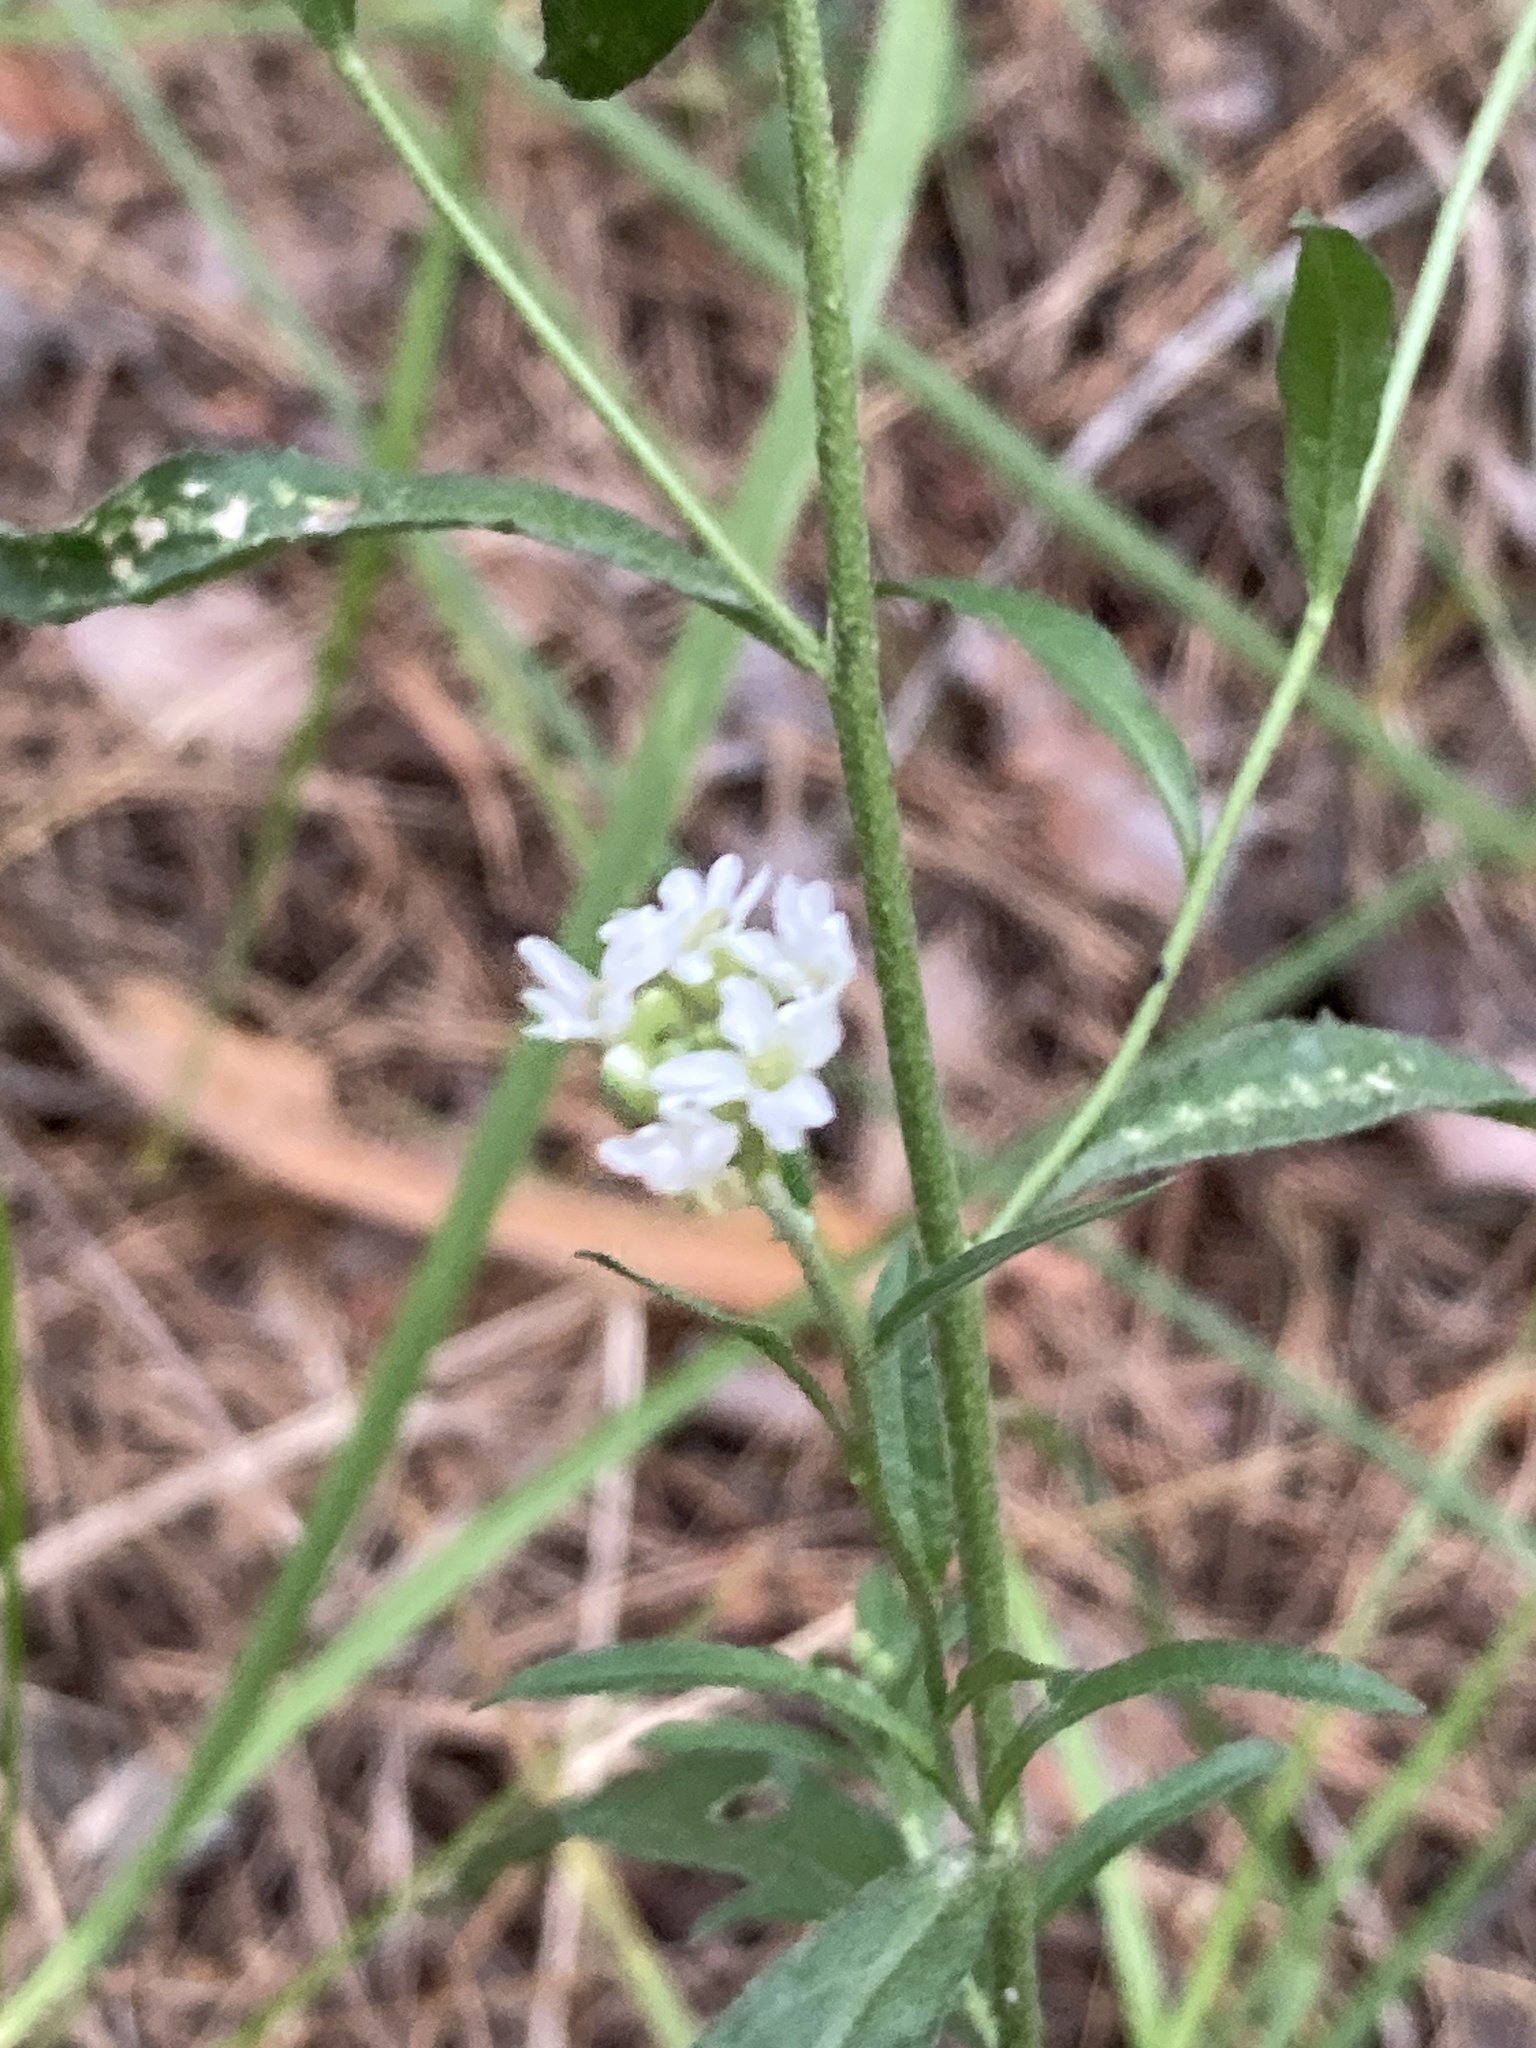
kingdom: Plantae
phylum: Tracheophyta
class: Magnoliopsida
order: Brassicales
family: Brassicaceae
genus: Berteroa
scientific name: Berteroa incana
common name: Hoary alison
